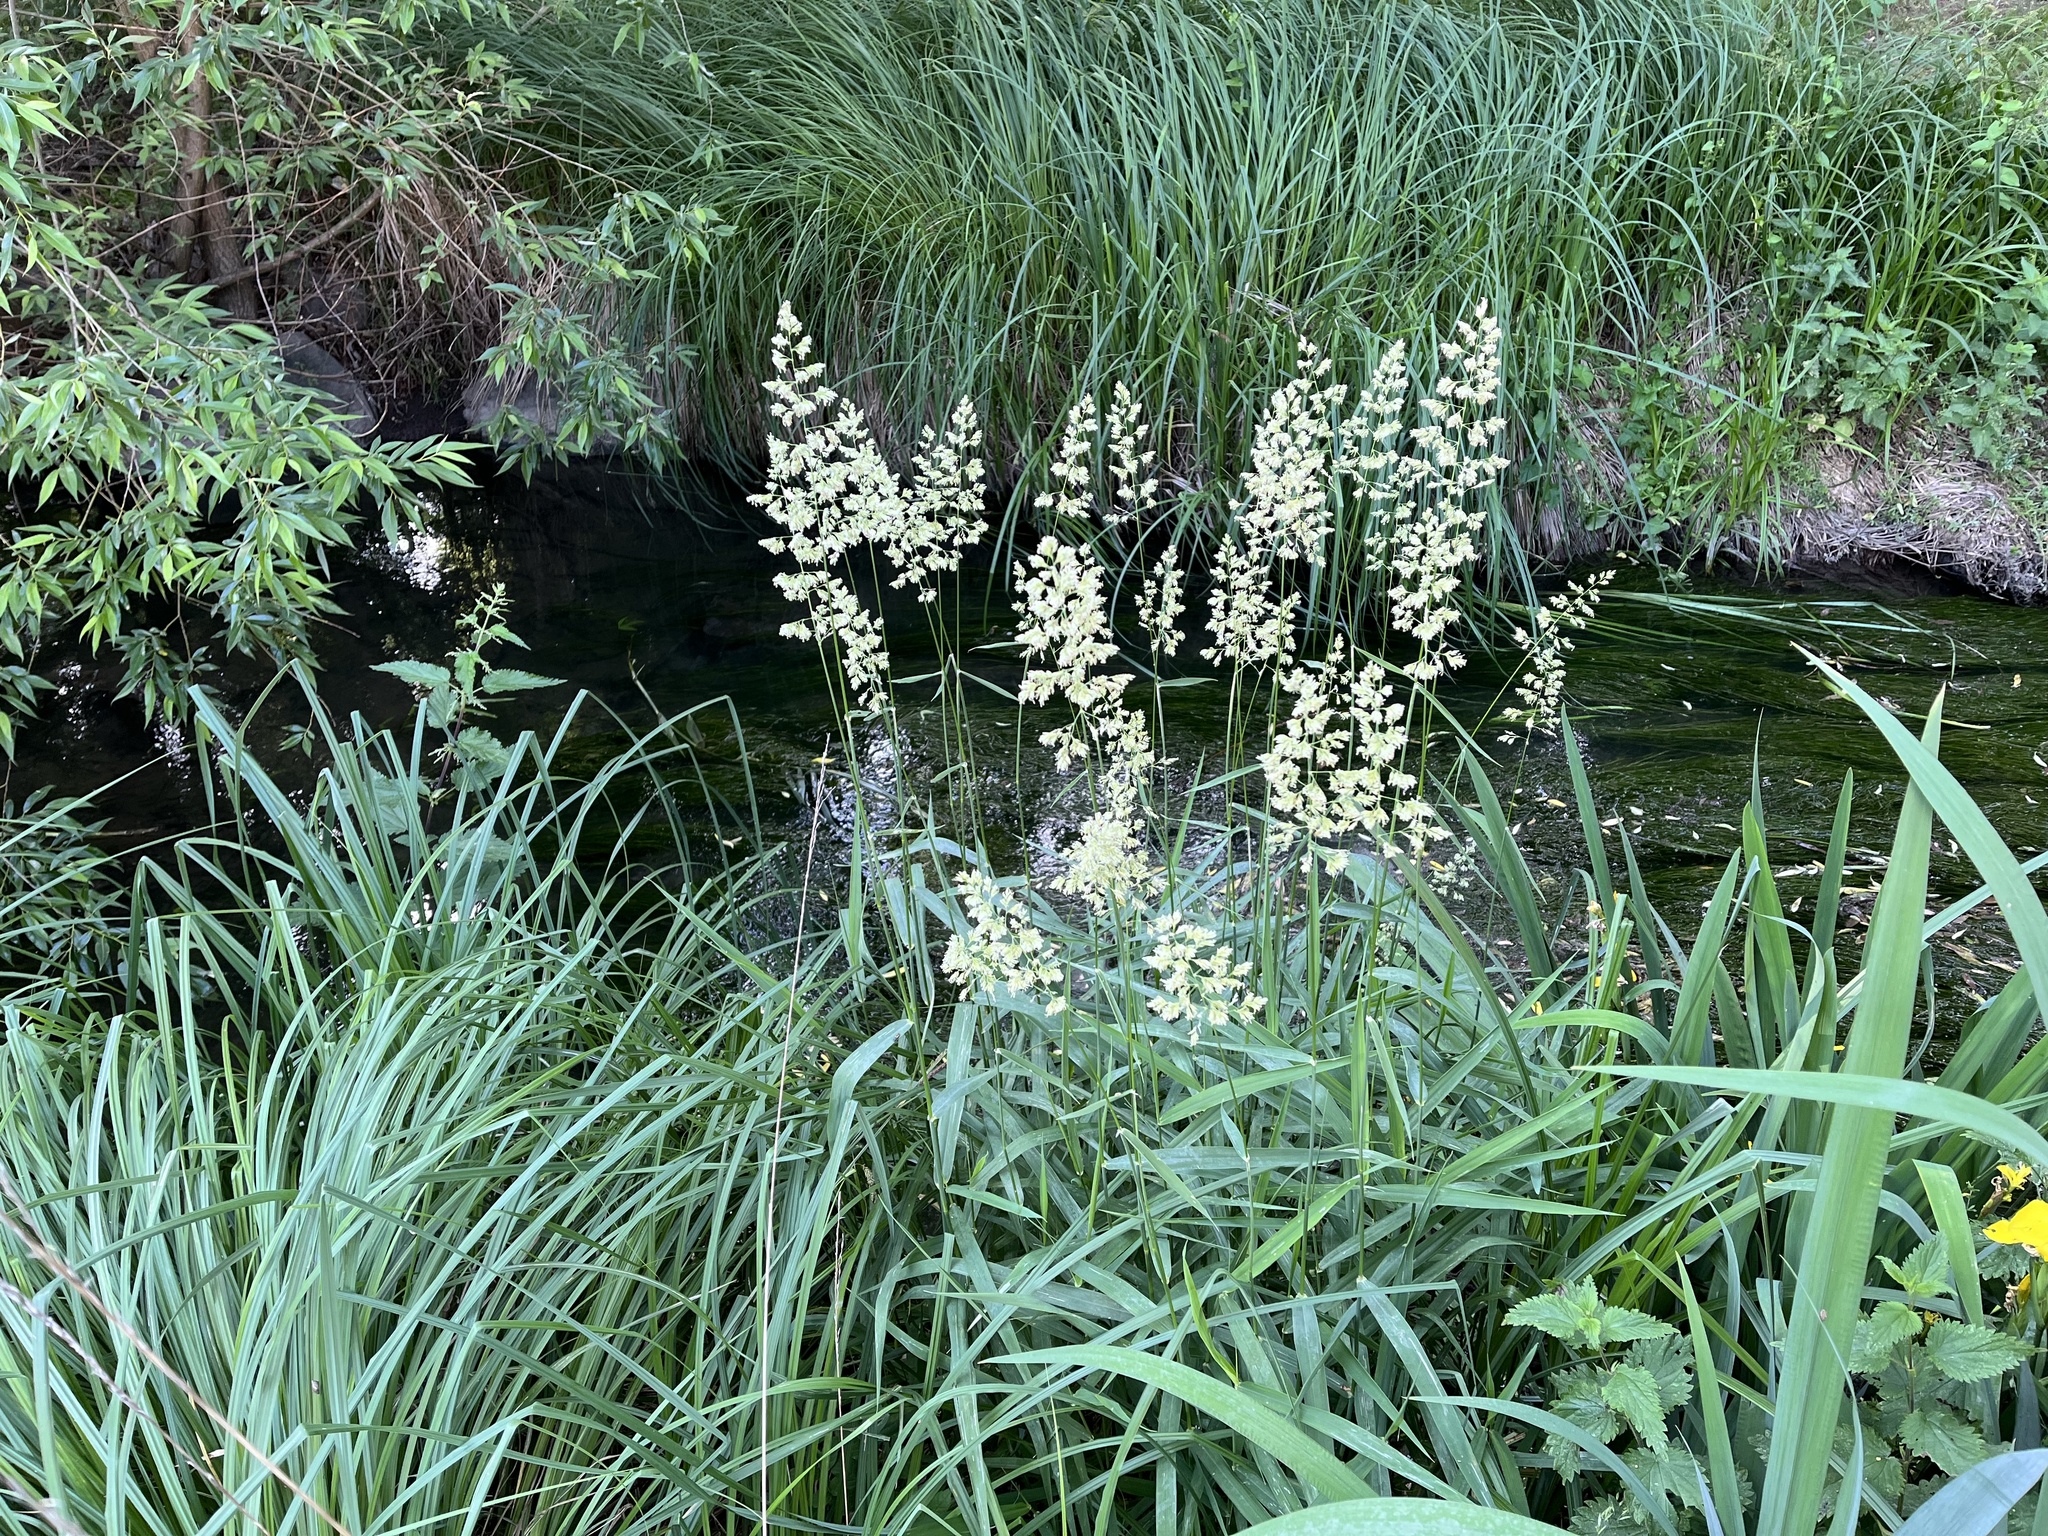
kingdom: Plantae
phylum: Tracheophyta
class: Liliopsida
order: Poales
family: Poaceae
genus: Phalaris
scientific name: Phalaris arundinacea
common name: Reed canary-grass
